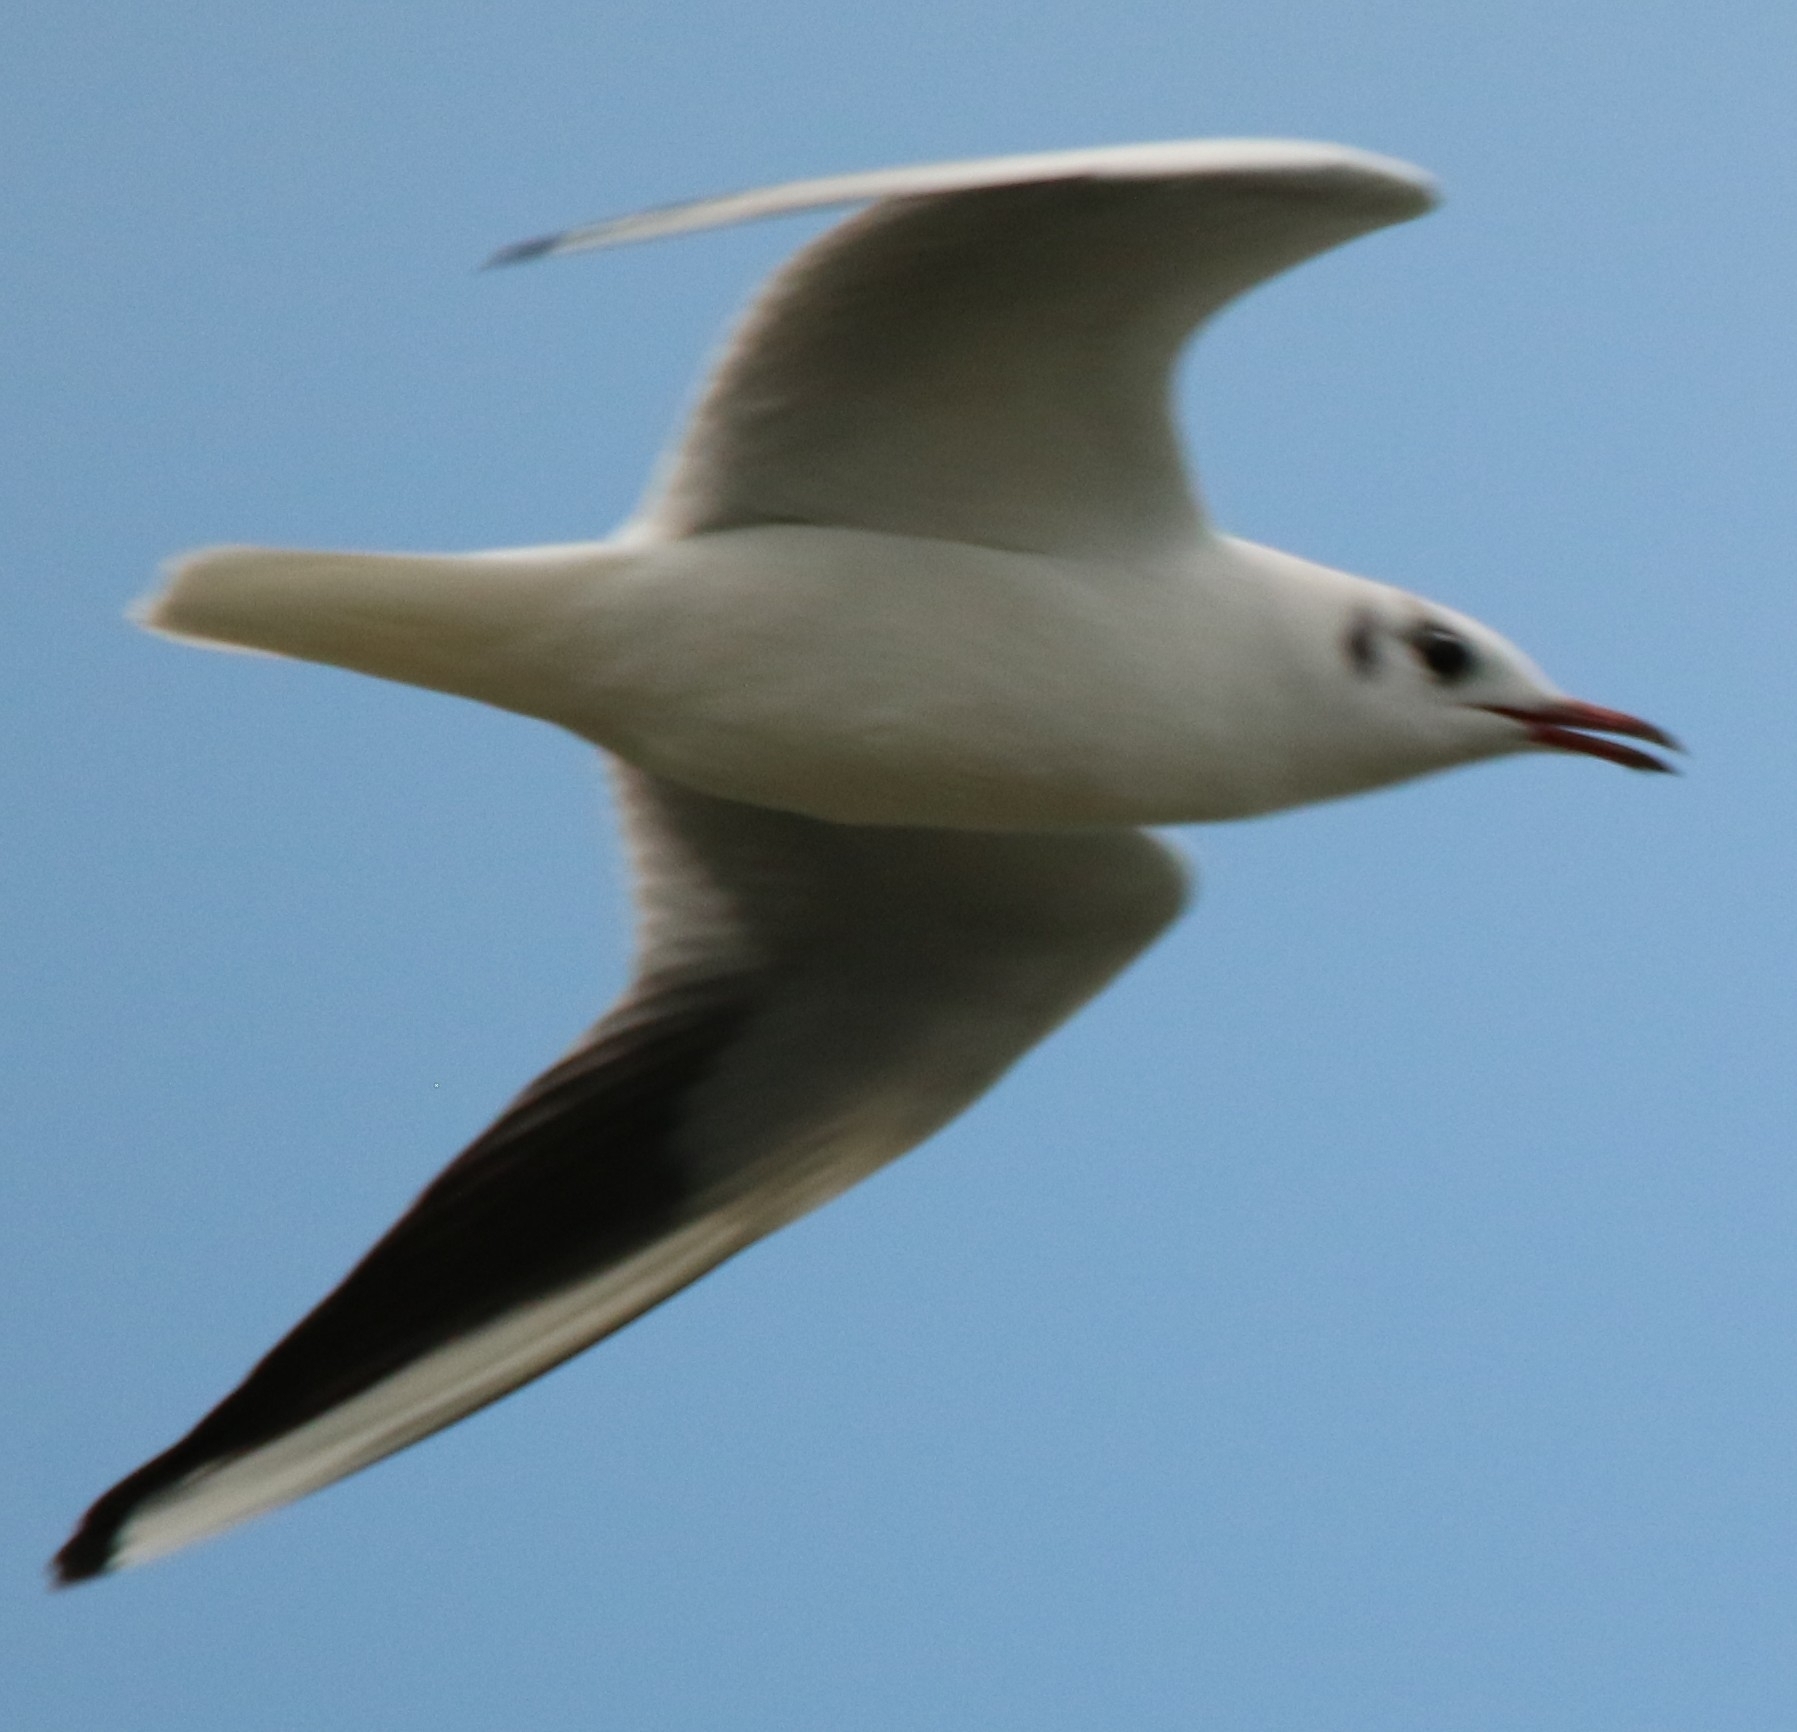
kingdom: Animalia
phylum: Chordata
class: Aves
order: Charadriiformes
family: Laridae
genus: Chroicocephalus
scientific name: Chroicocephalus ridibundus
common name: Black-headed gull
